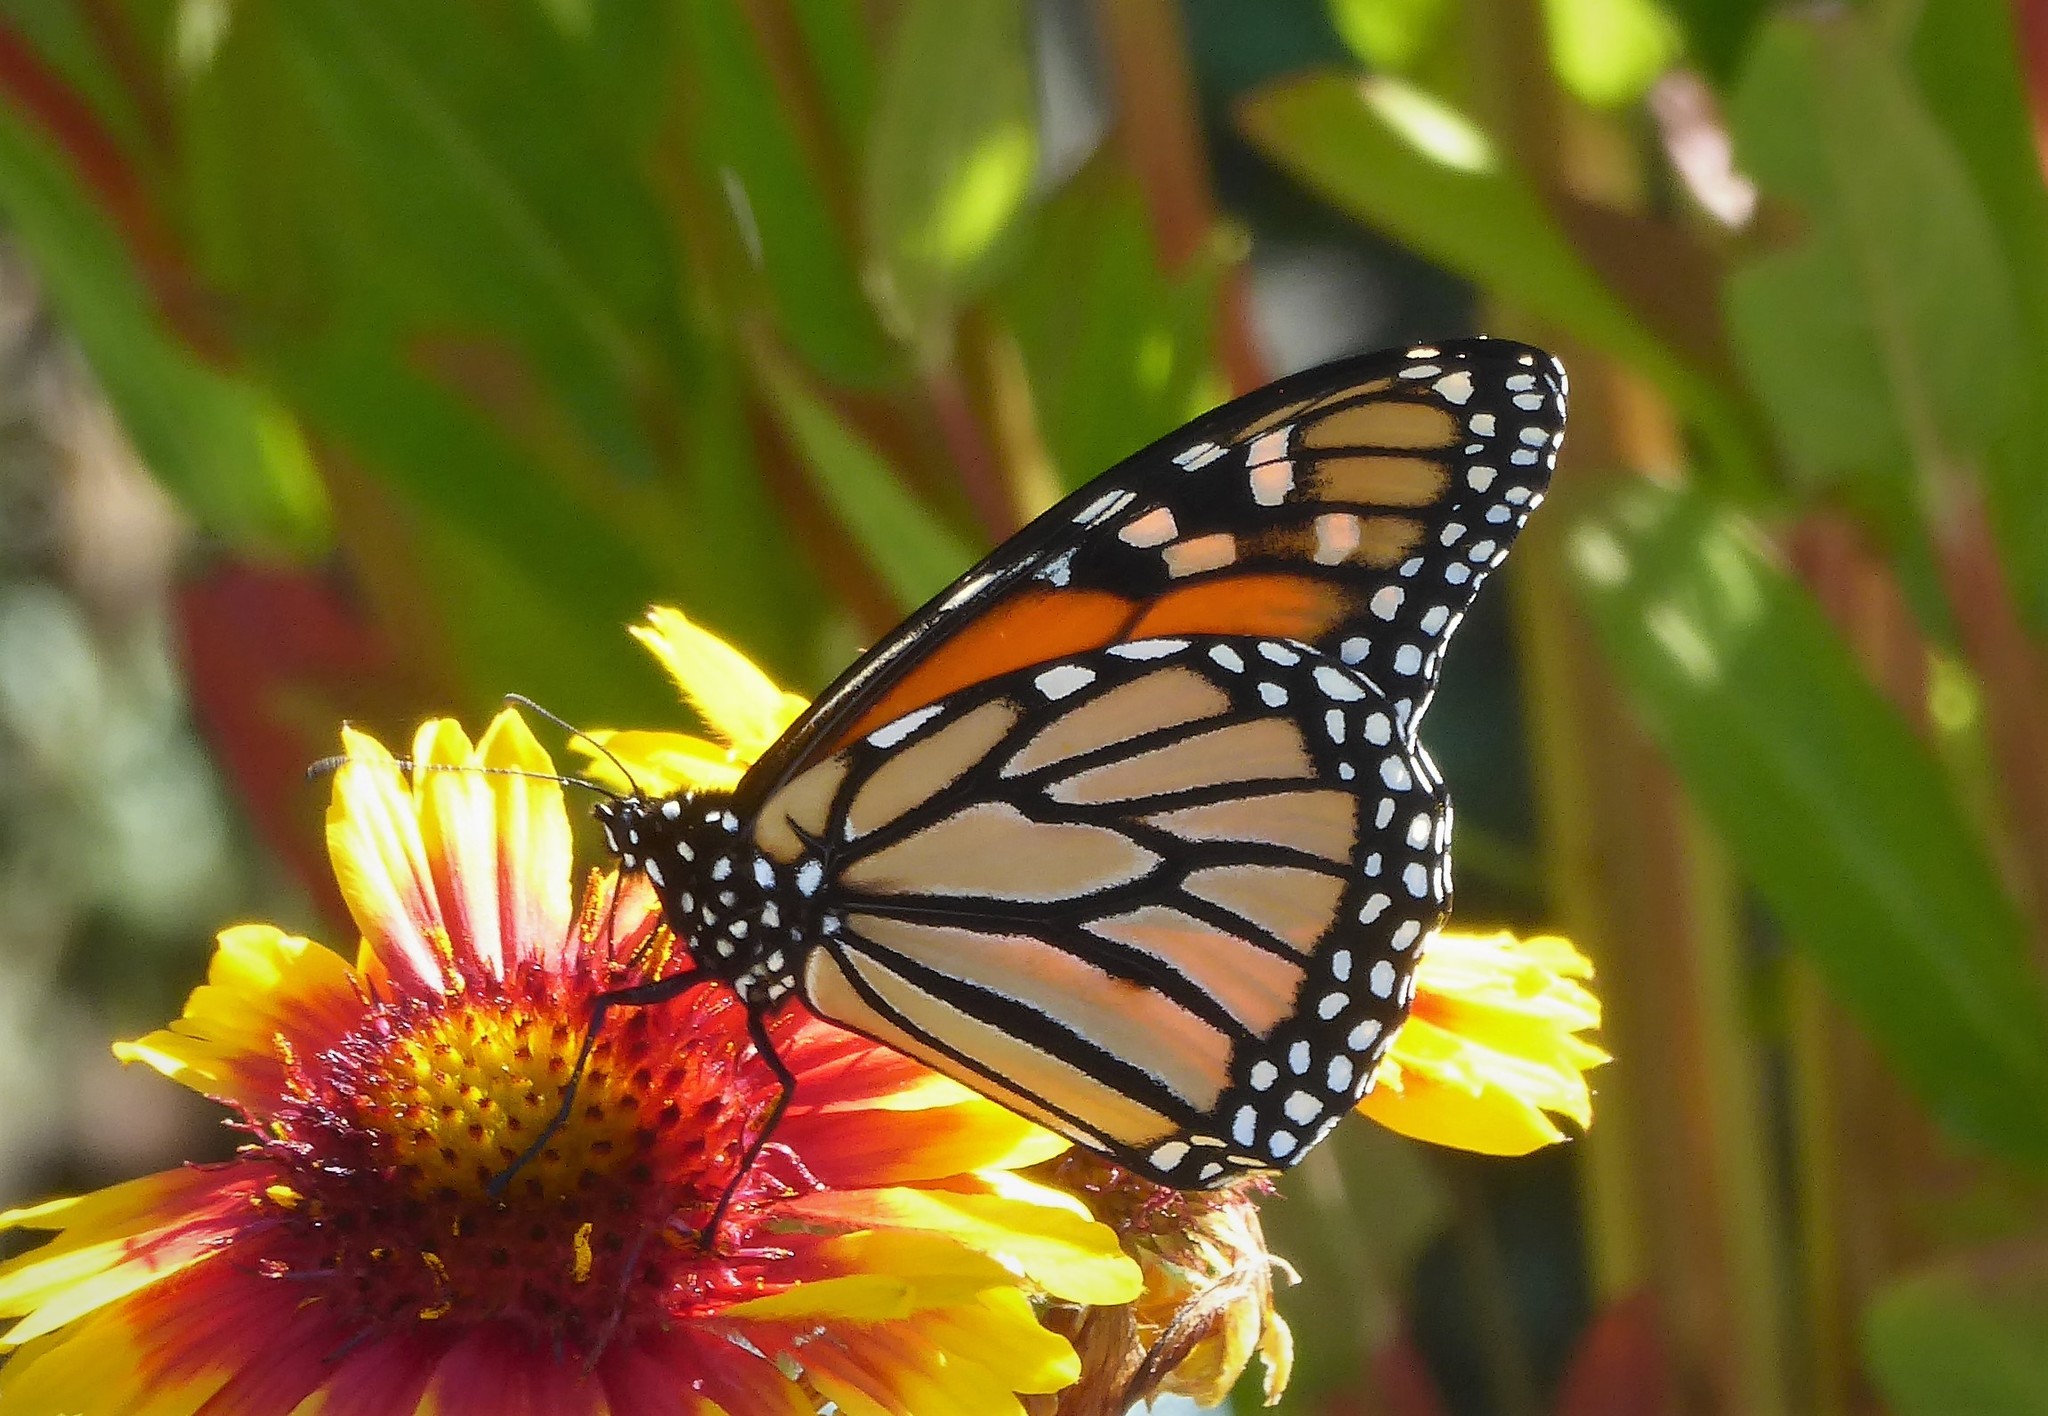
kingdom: Animalia
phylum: Arthropoda
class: Insecta
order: Lepidoptera
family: Nymphalidae
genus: Danaus
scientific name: Danaus plexippus
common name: Monarch
